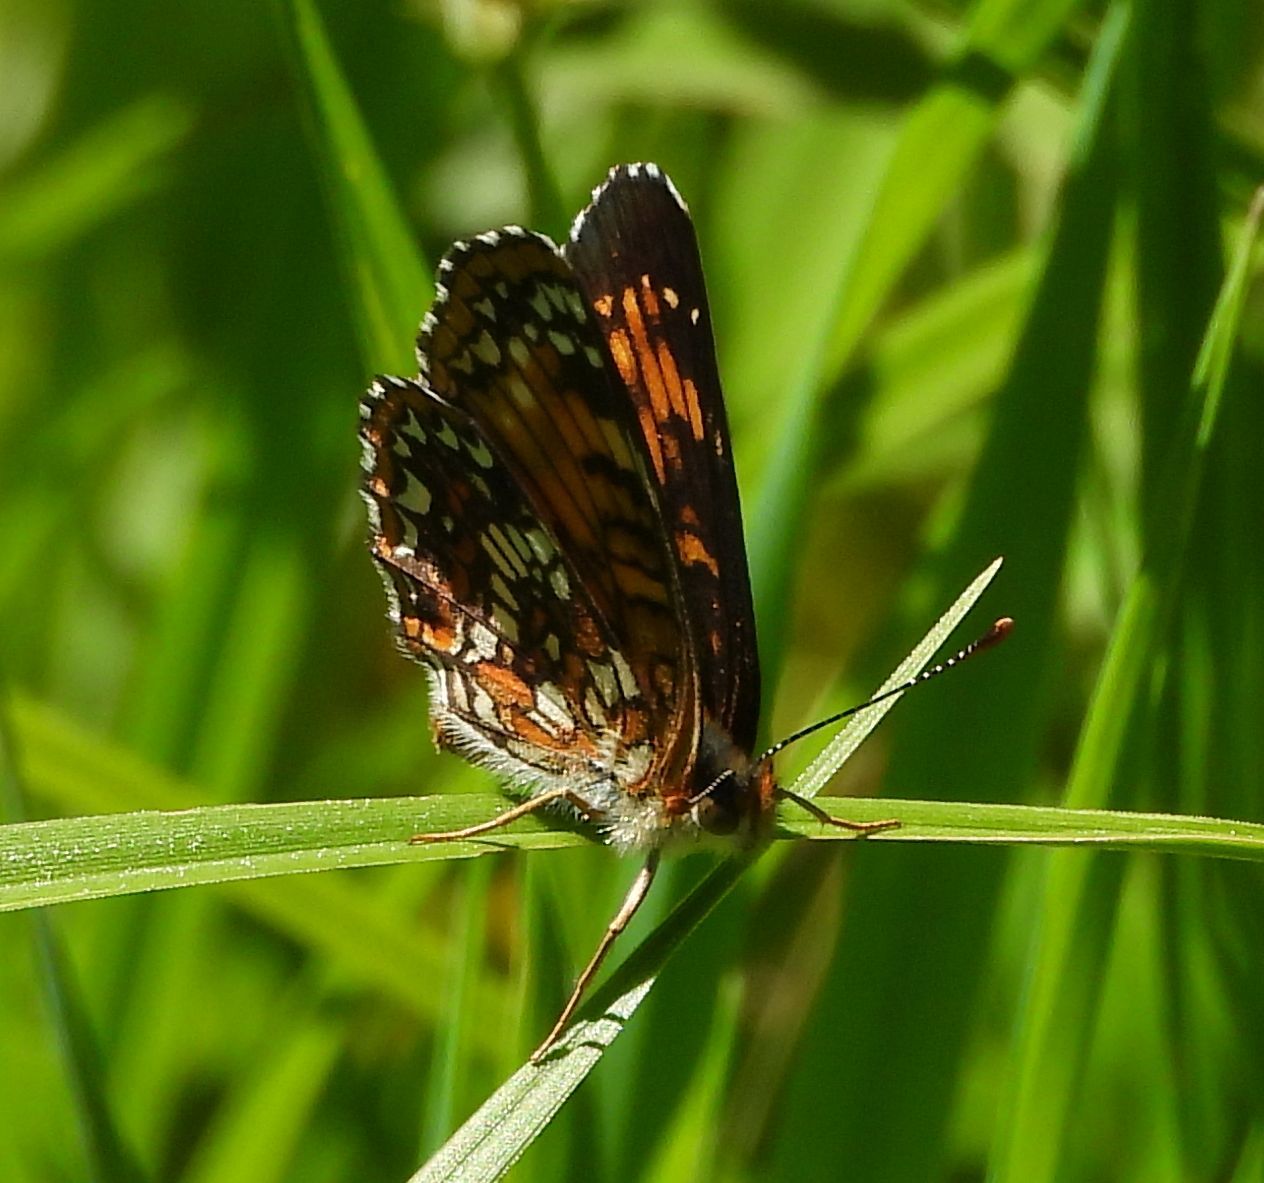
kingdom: Animalia
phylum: Arthropoda
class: Insecta
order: Lepidoptera
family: Nymphalidae
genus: Chlosyne
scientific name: Chlosyne harrisii
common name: Harris's checkerspot
